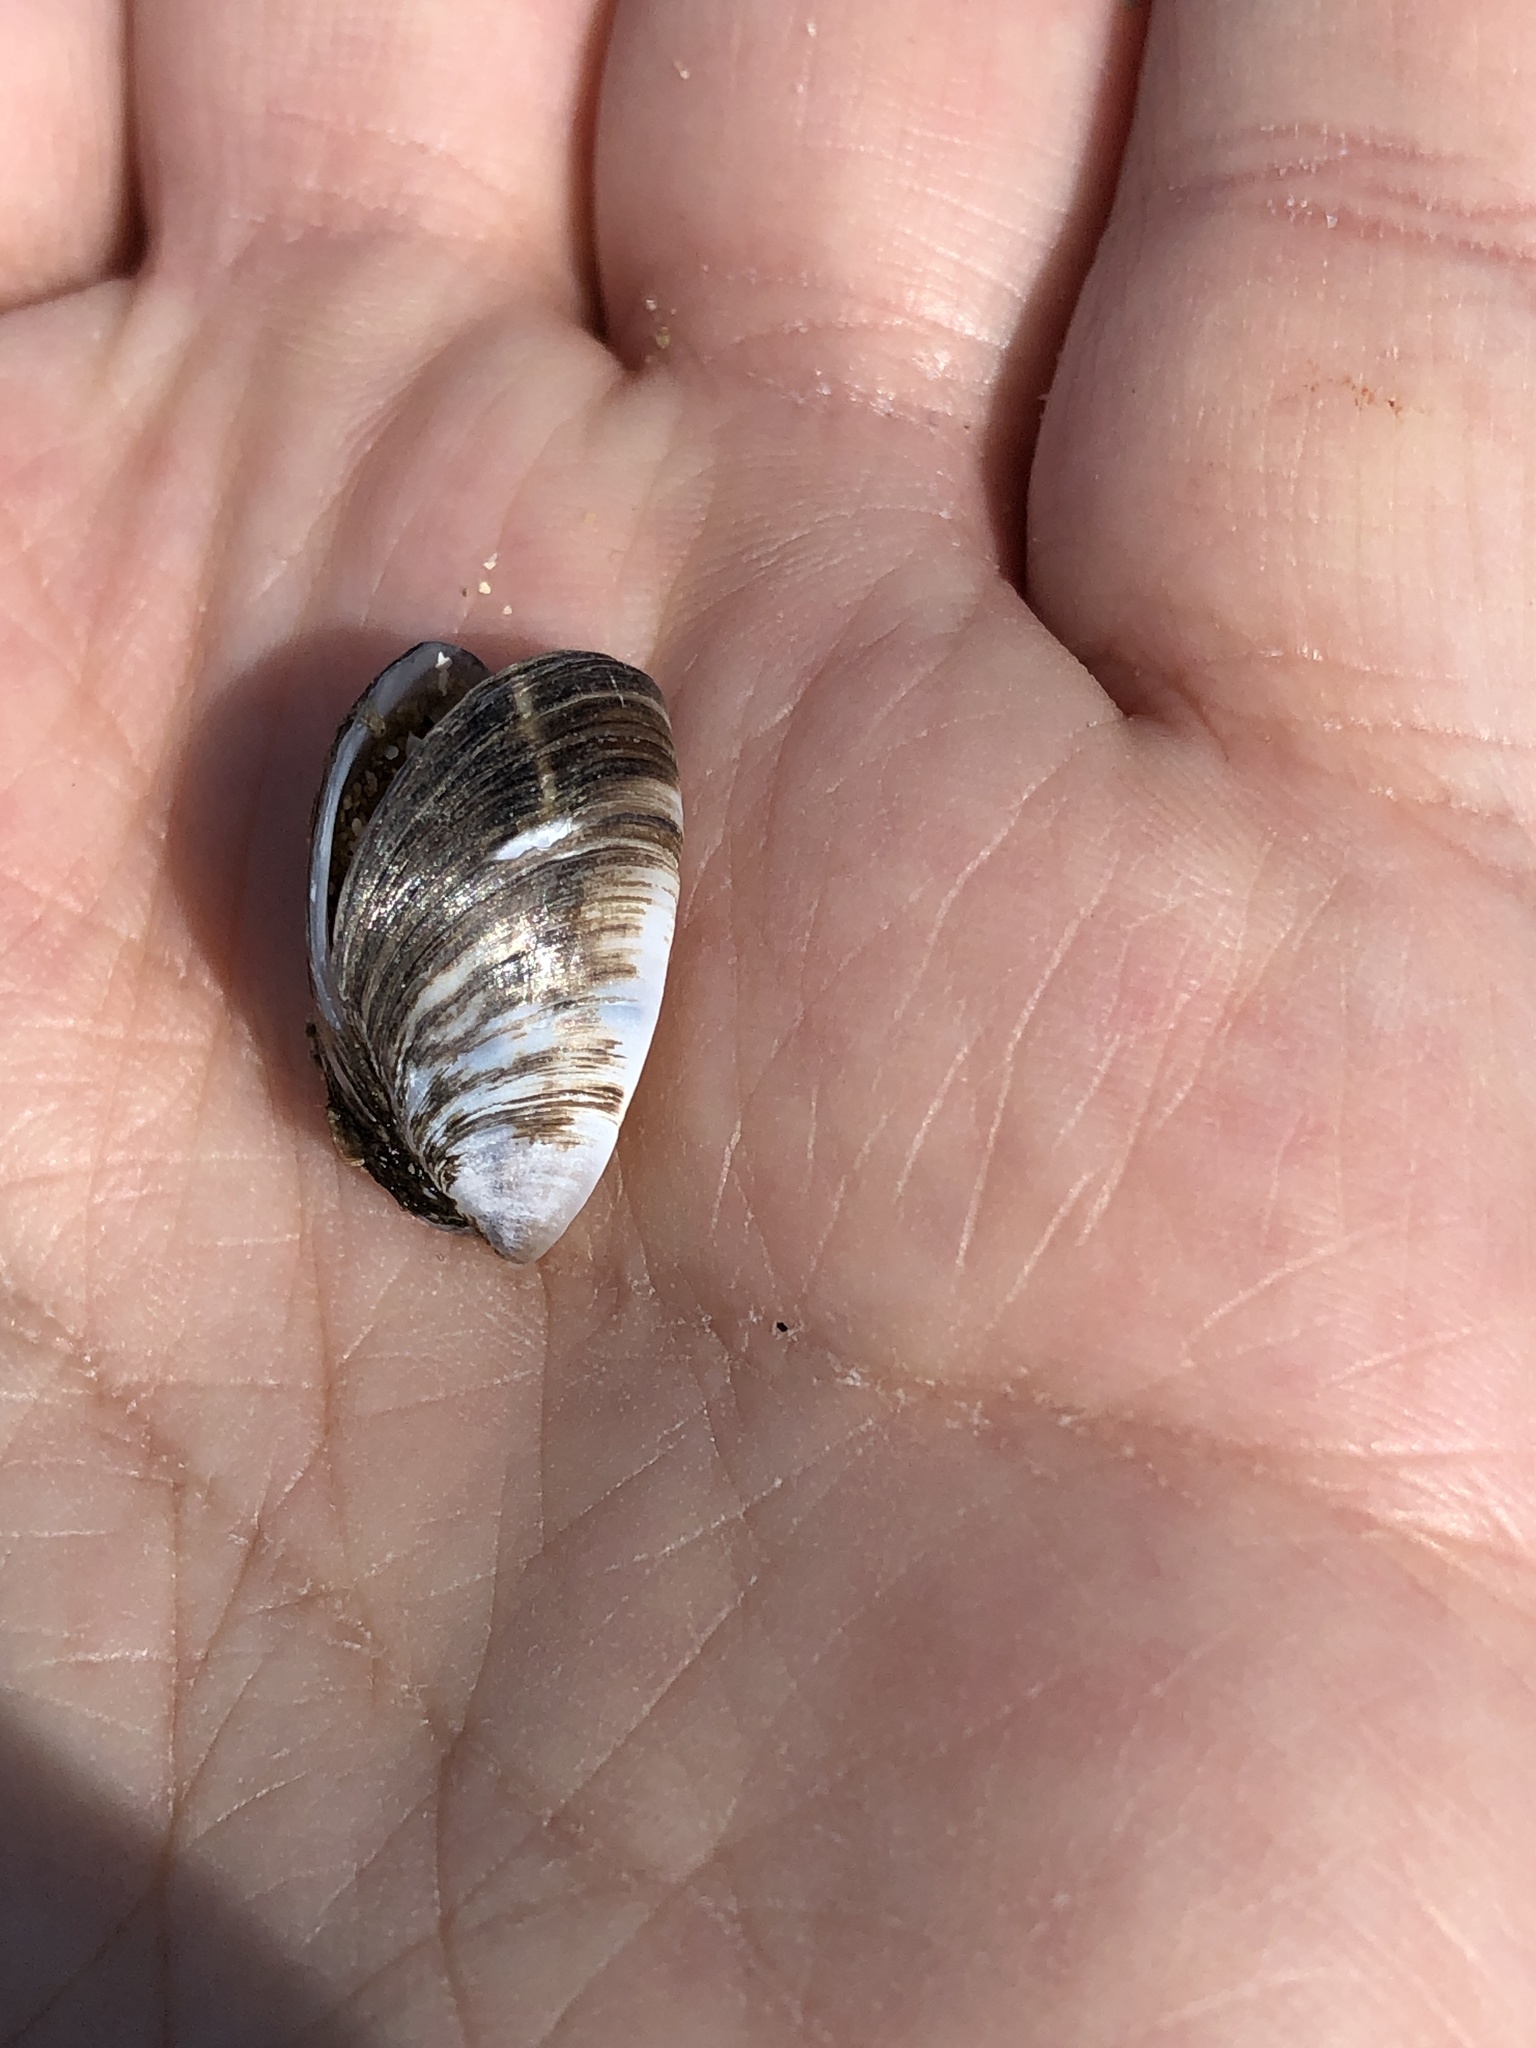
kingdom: Animalia
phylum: Mollusca
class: Bivalvia
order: Myida
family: Dreissenidae
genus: Dreissena
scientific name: Dreissena polymorpha
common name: Zebra mussel
